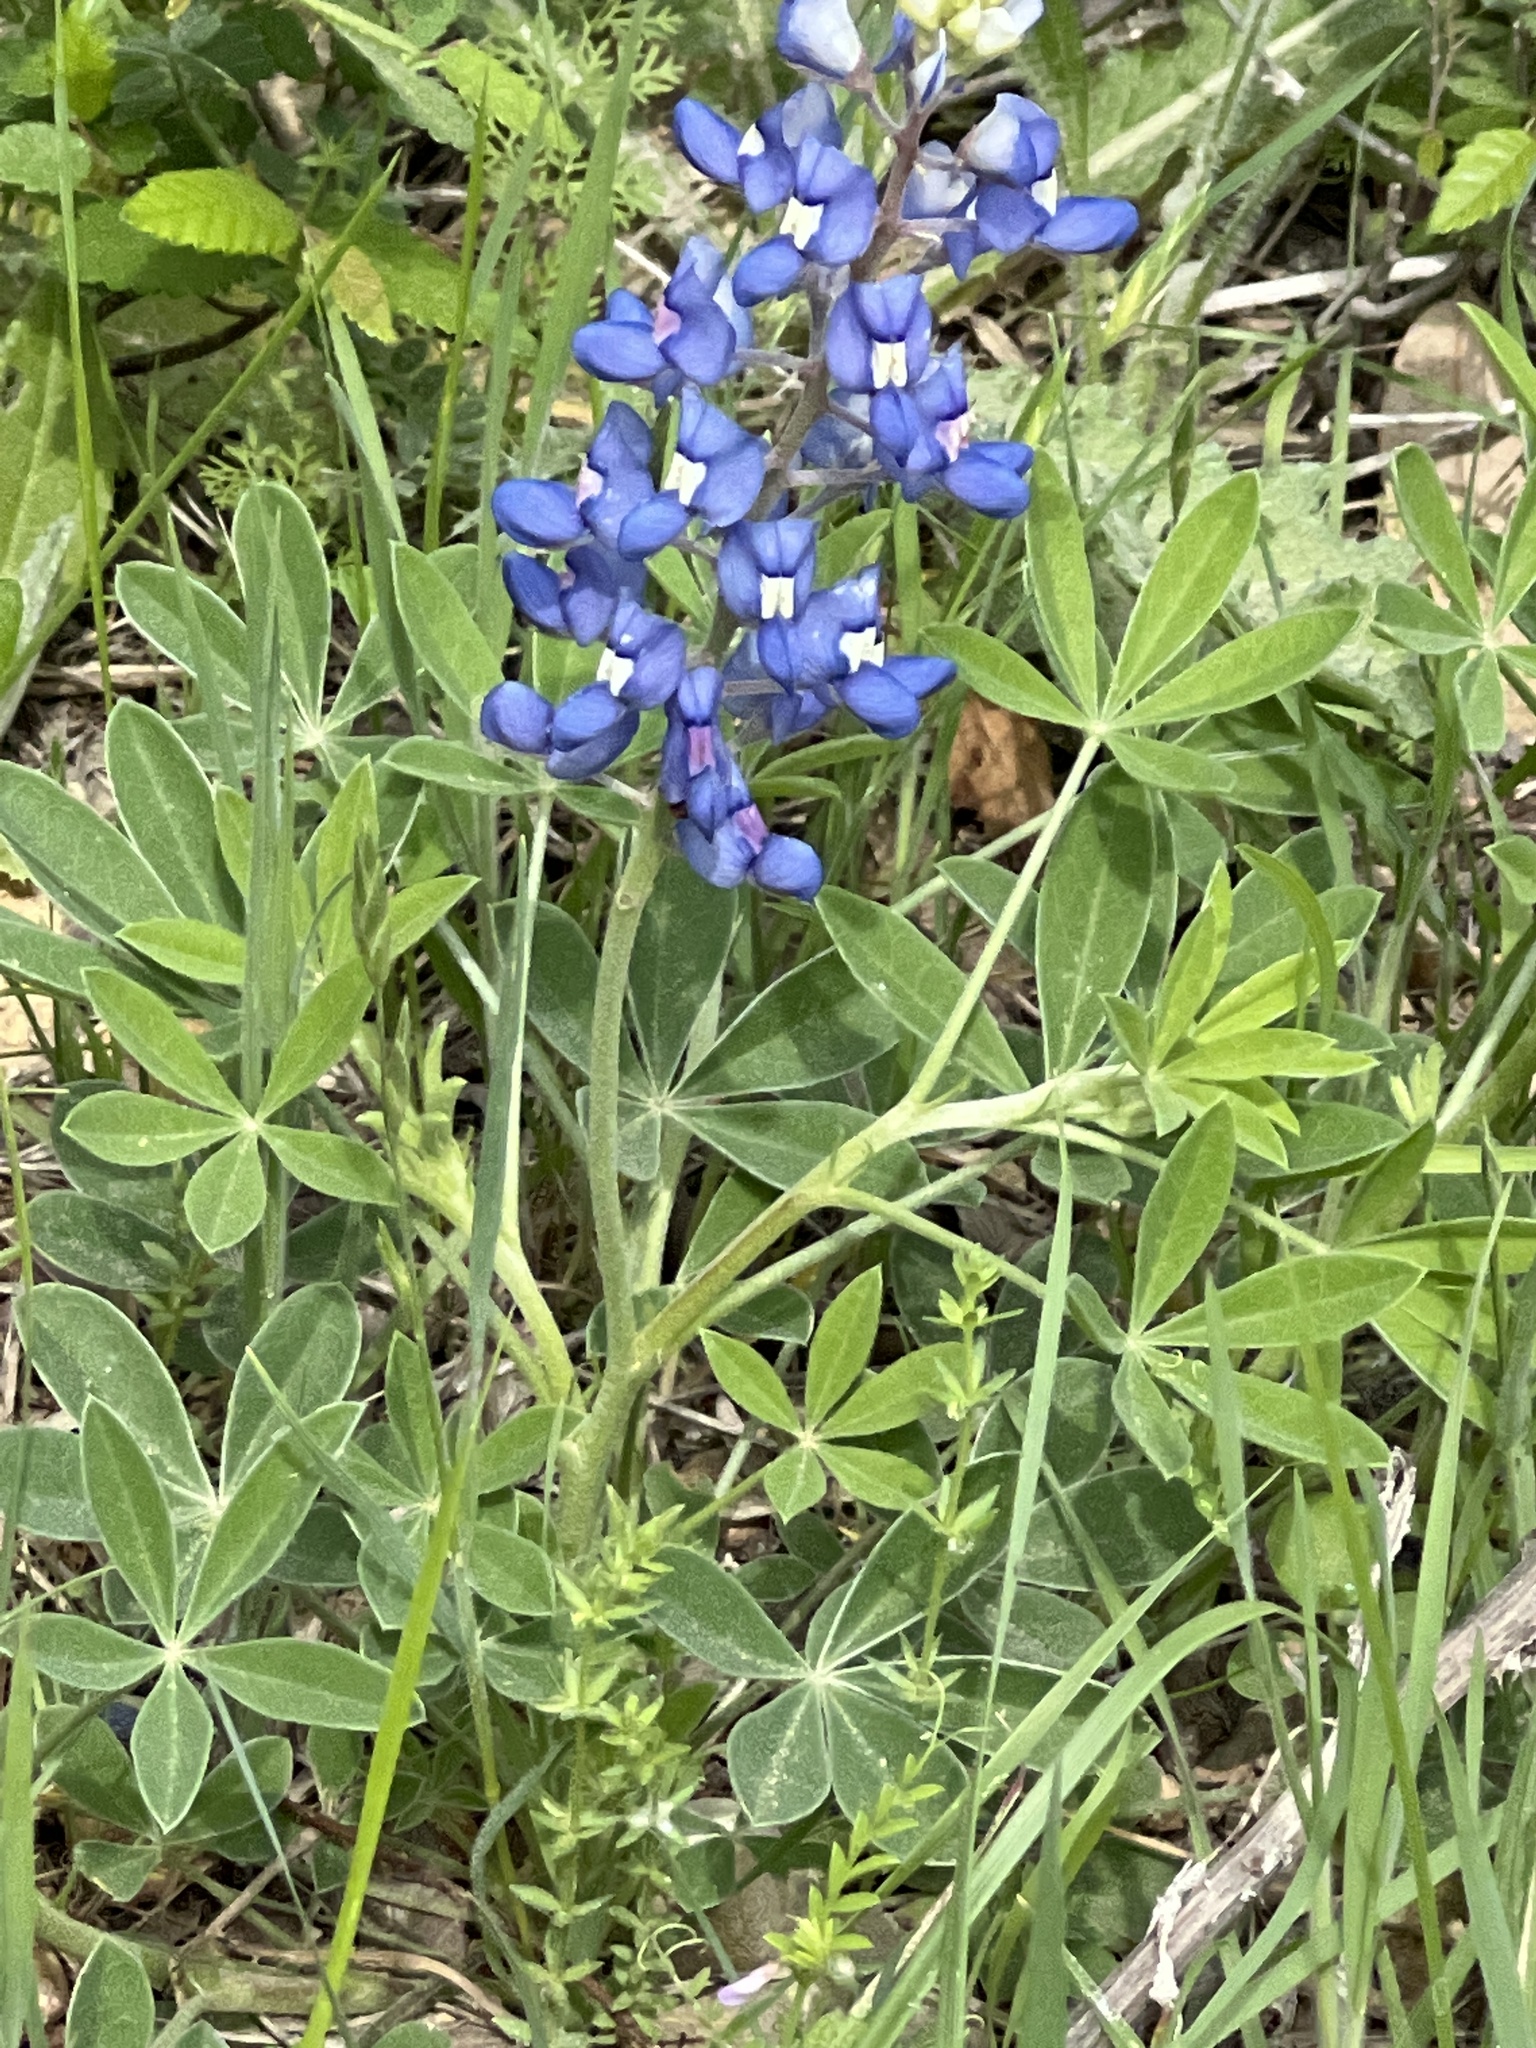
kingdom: Plantae
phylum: Tracheophyta
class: Magnoliopsida
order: Fabales
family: Fabaceae
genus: Lupinus
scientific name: Lupinus texensis
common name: Texas bluebonnet
